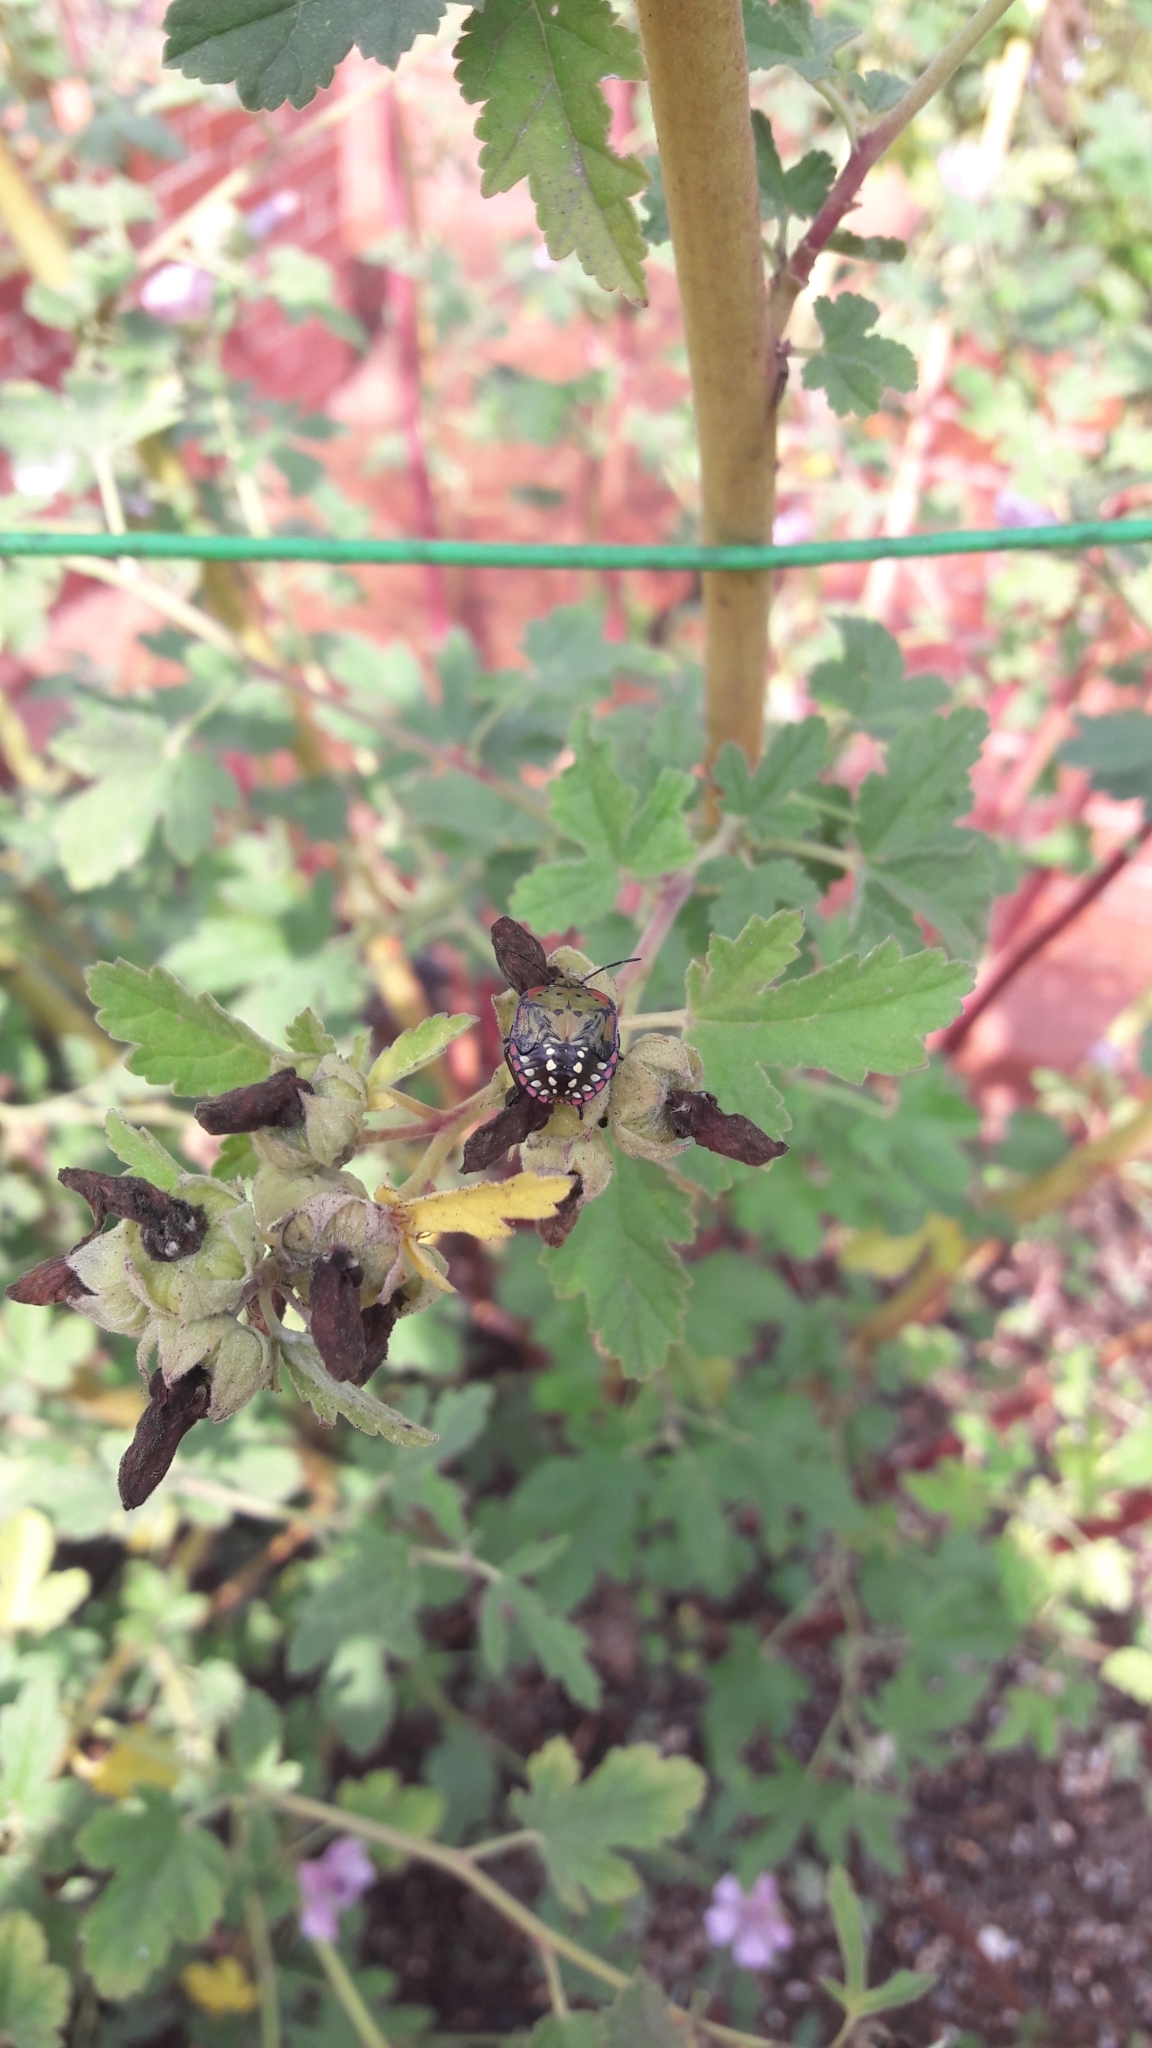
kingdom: Animalia
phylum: Arthropoda
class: Insecta
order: Hemiptera
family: Pentatomidae
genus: Nezara
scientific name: Nezara viridula
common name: Southern green stink bug
